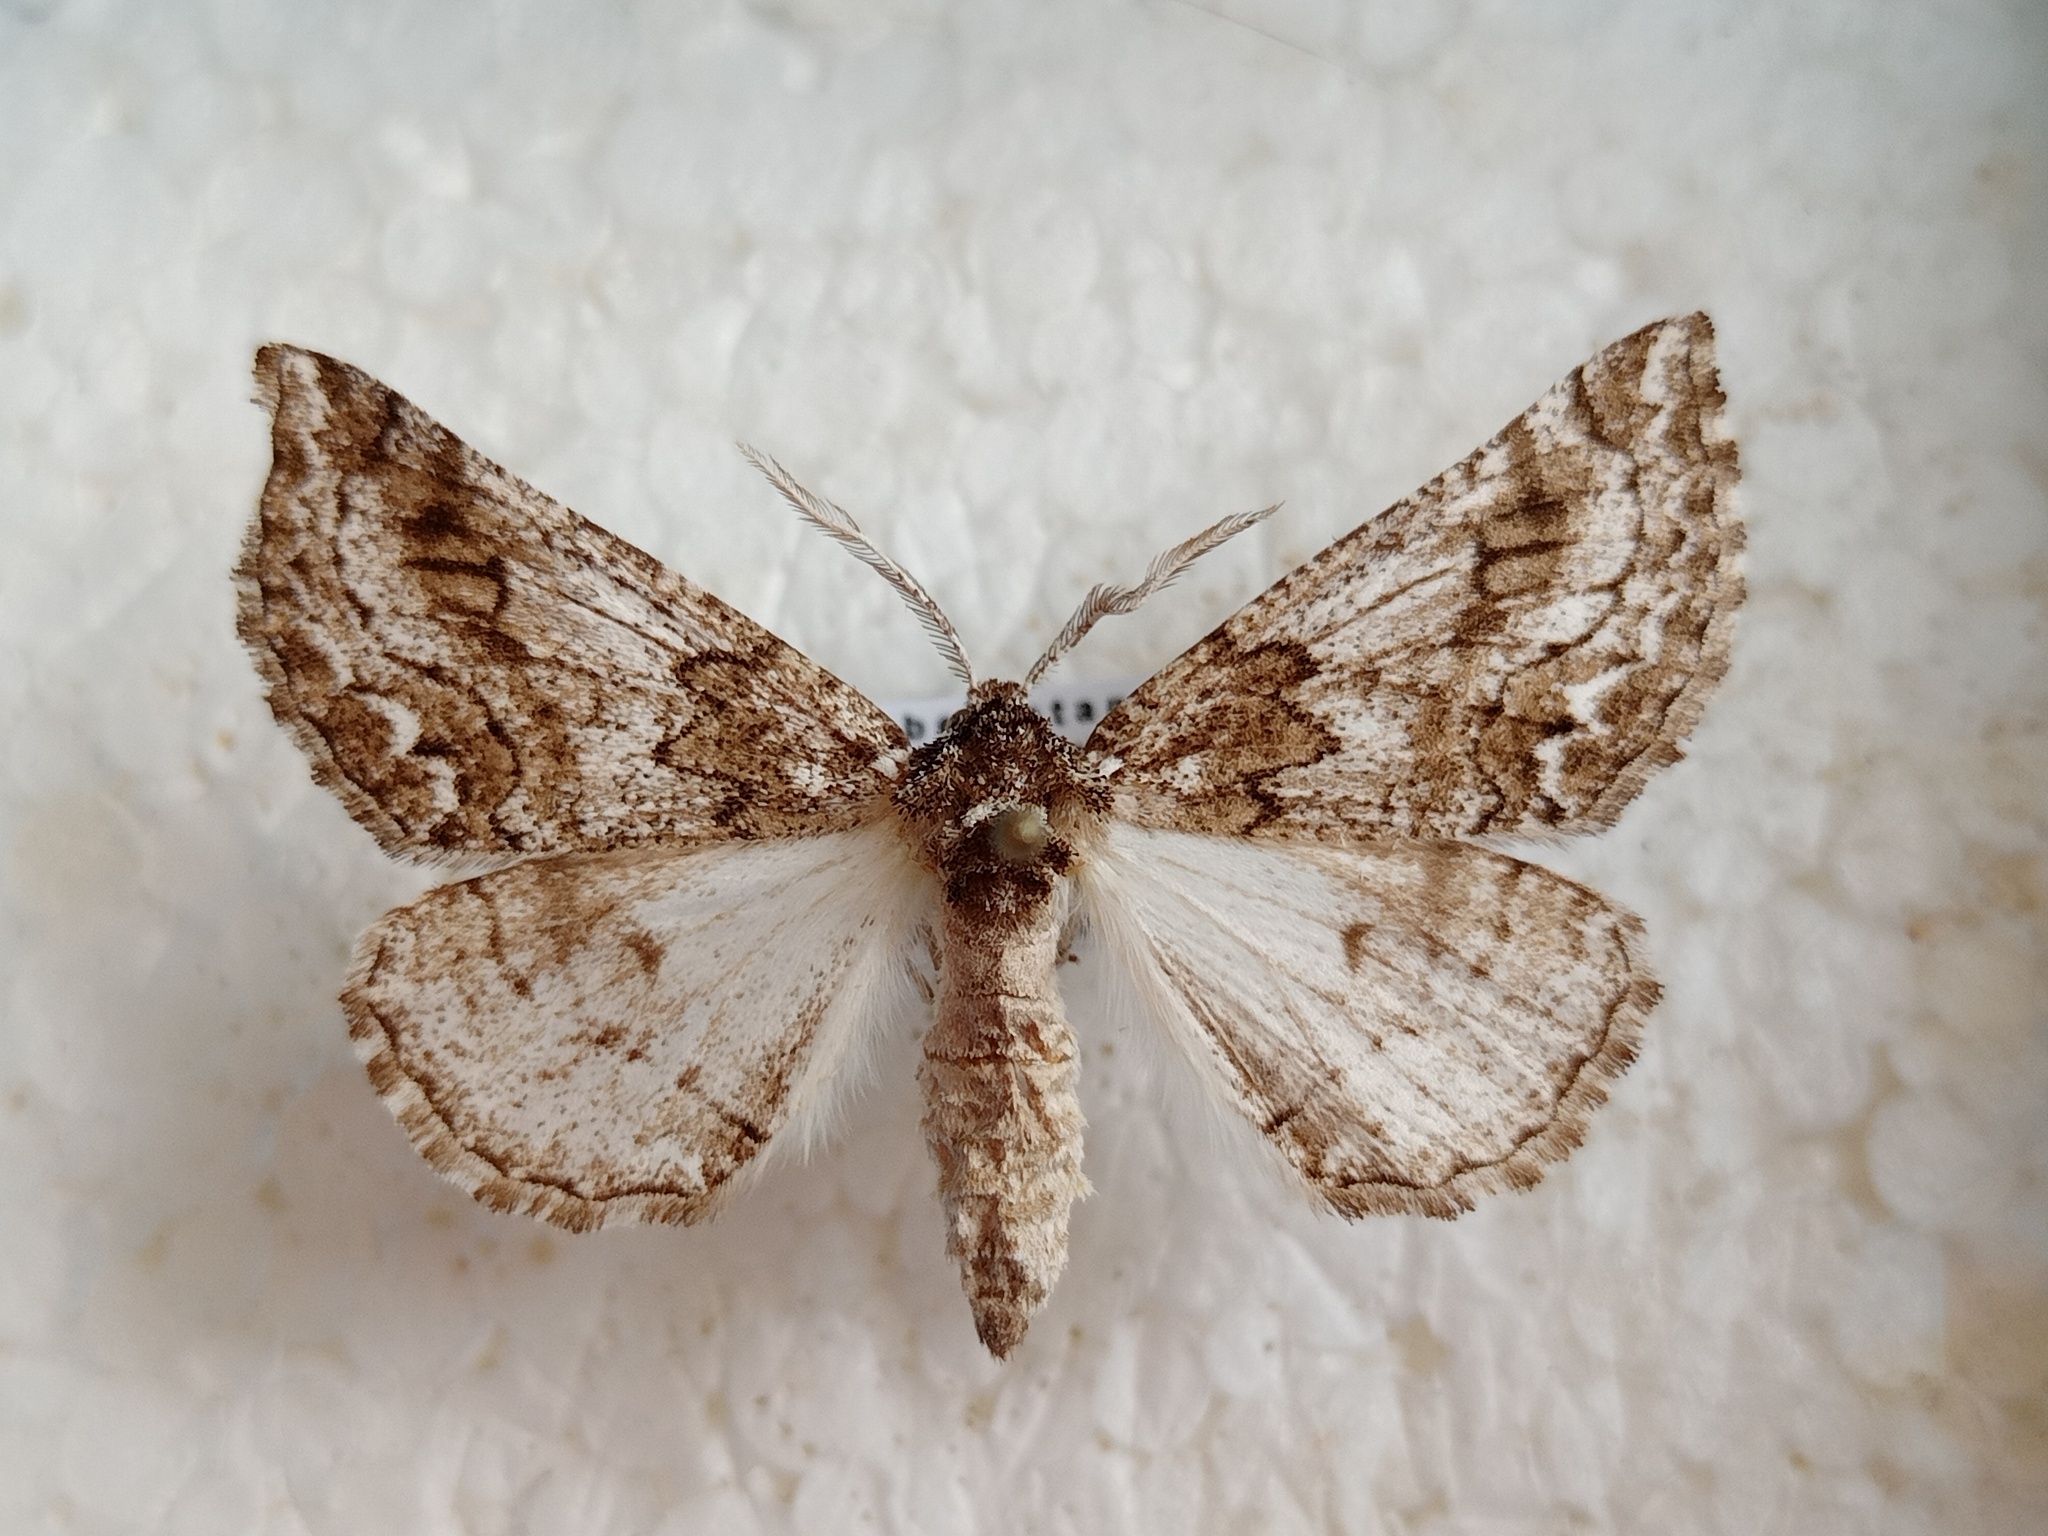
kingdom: Animalia
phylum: Arthropoda
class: Insecta
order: Lepidoptera
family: Geometridae
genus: Phaselia
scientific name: Phaselia narynaria
